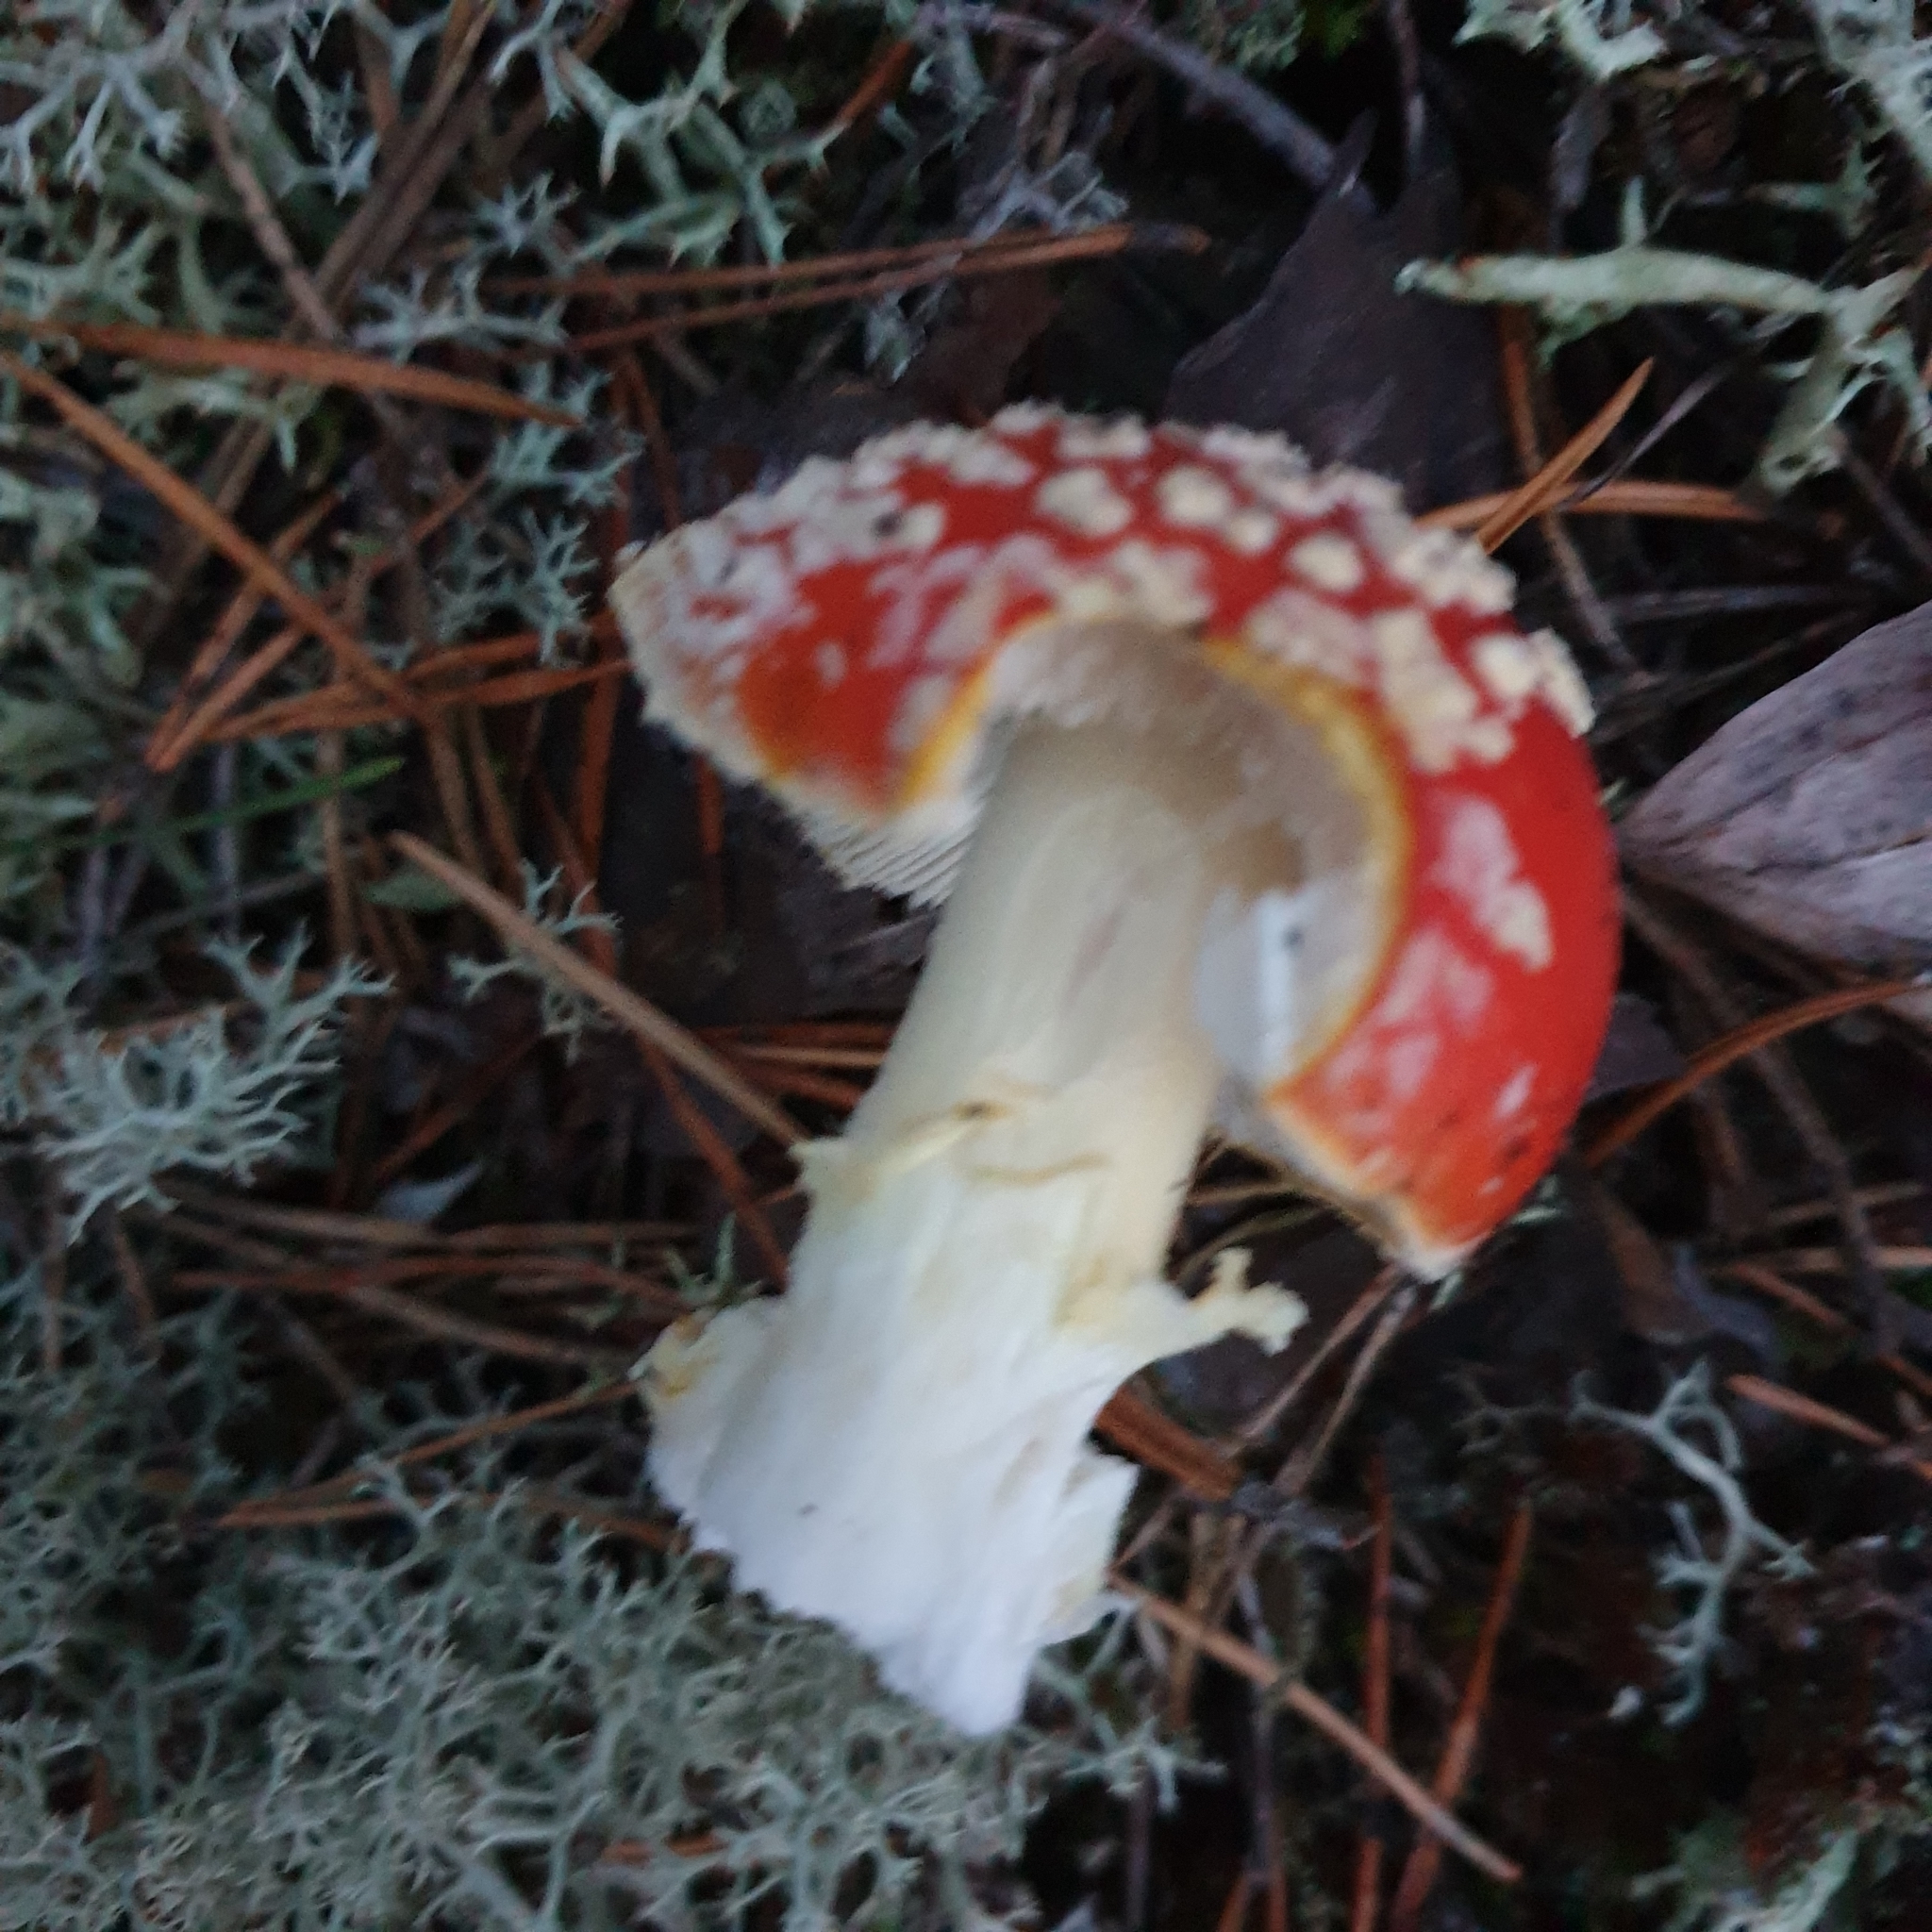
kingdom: Fungi
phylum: Basidiomycota
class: Agaricomycetes
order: Agaricales
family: Amanitaceae
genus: Amanita
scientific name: Amanita muscaria
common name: Fly agaric
